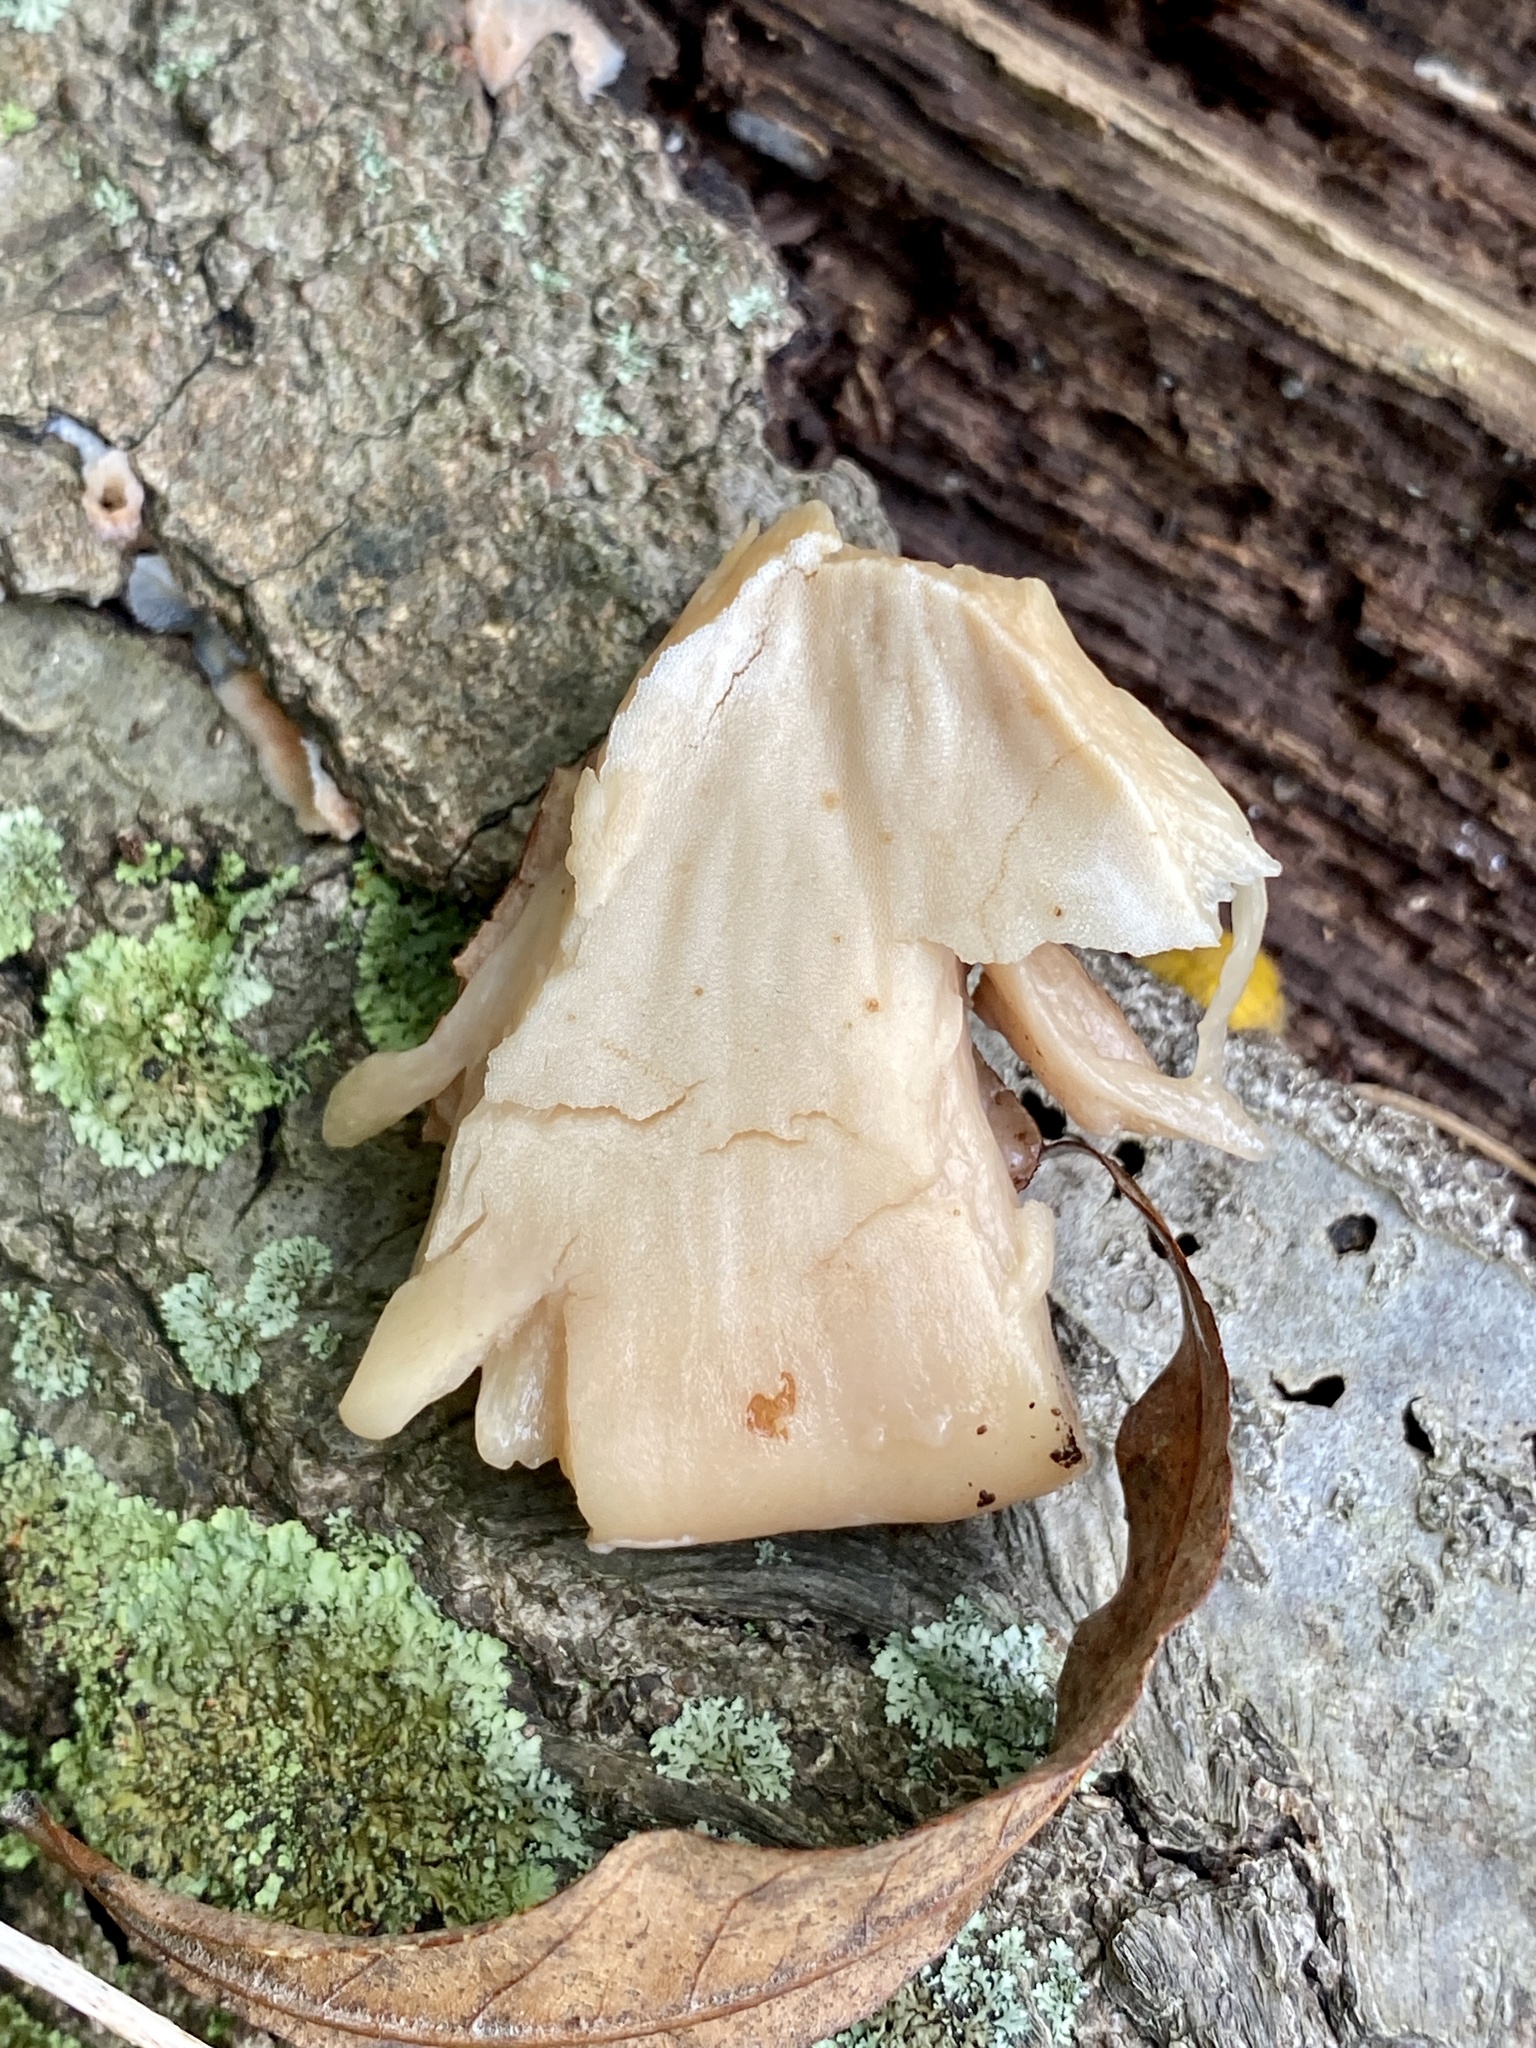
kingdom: Fungi
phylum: Basidiomycota
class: Agaricomycetes
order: Polyporales
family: Ischnodermataceae
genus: Ischnoderma
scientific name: Ischnoderma resinosum
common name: Resinous polypore
